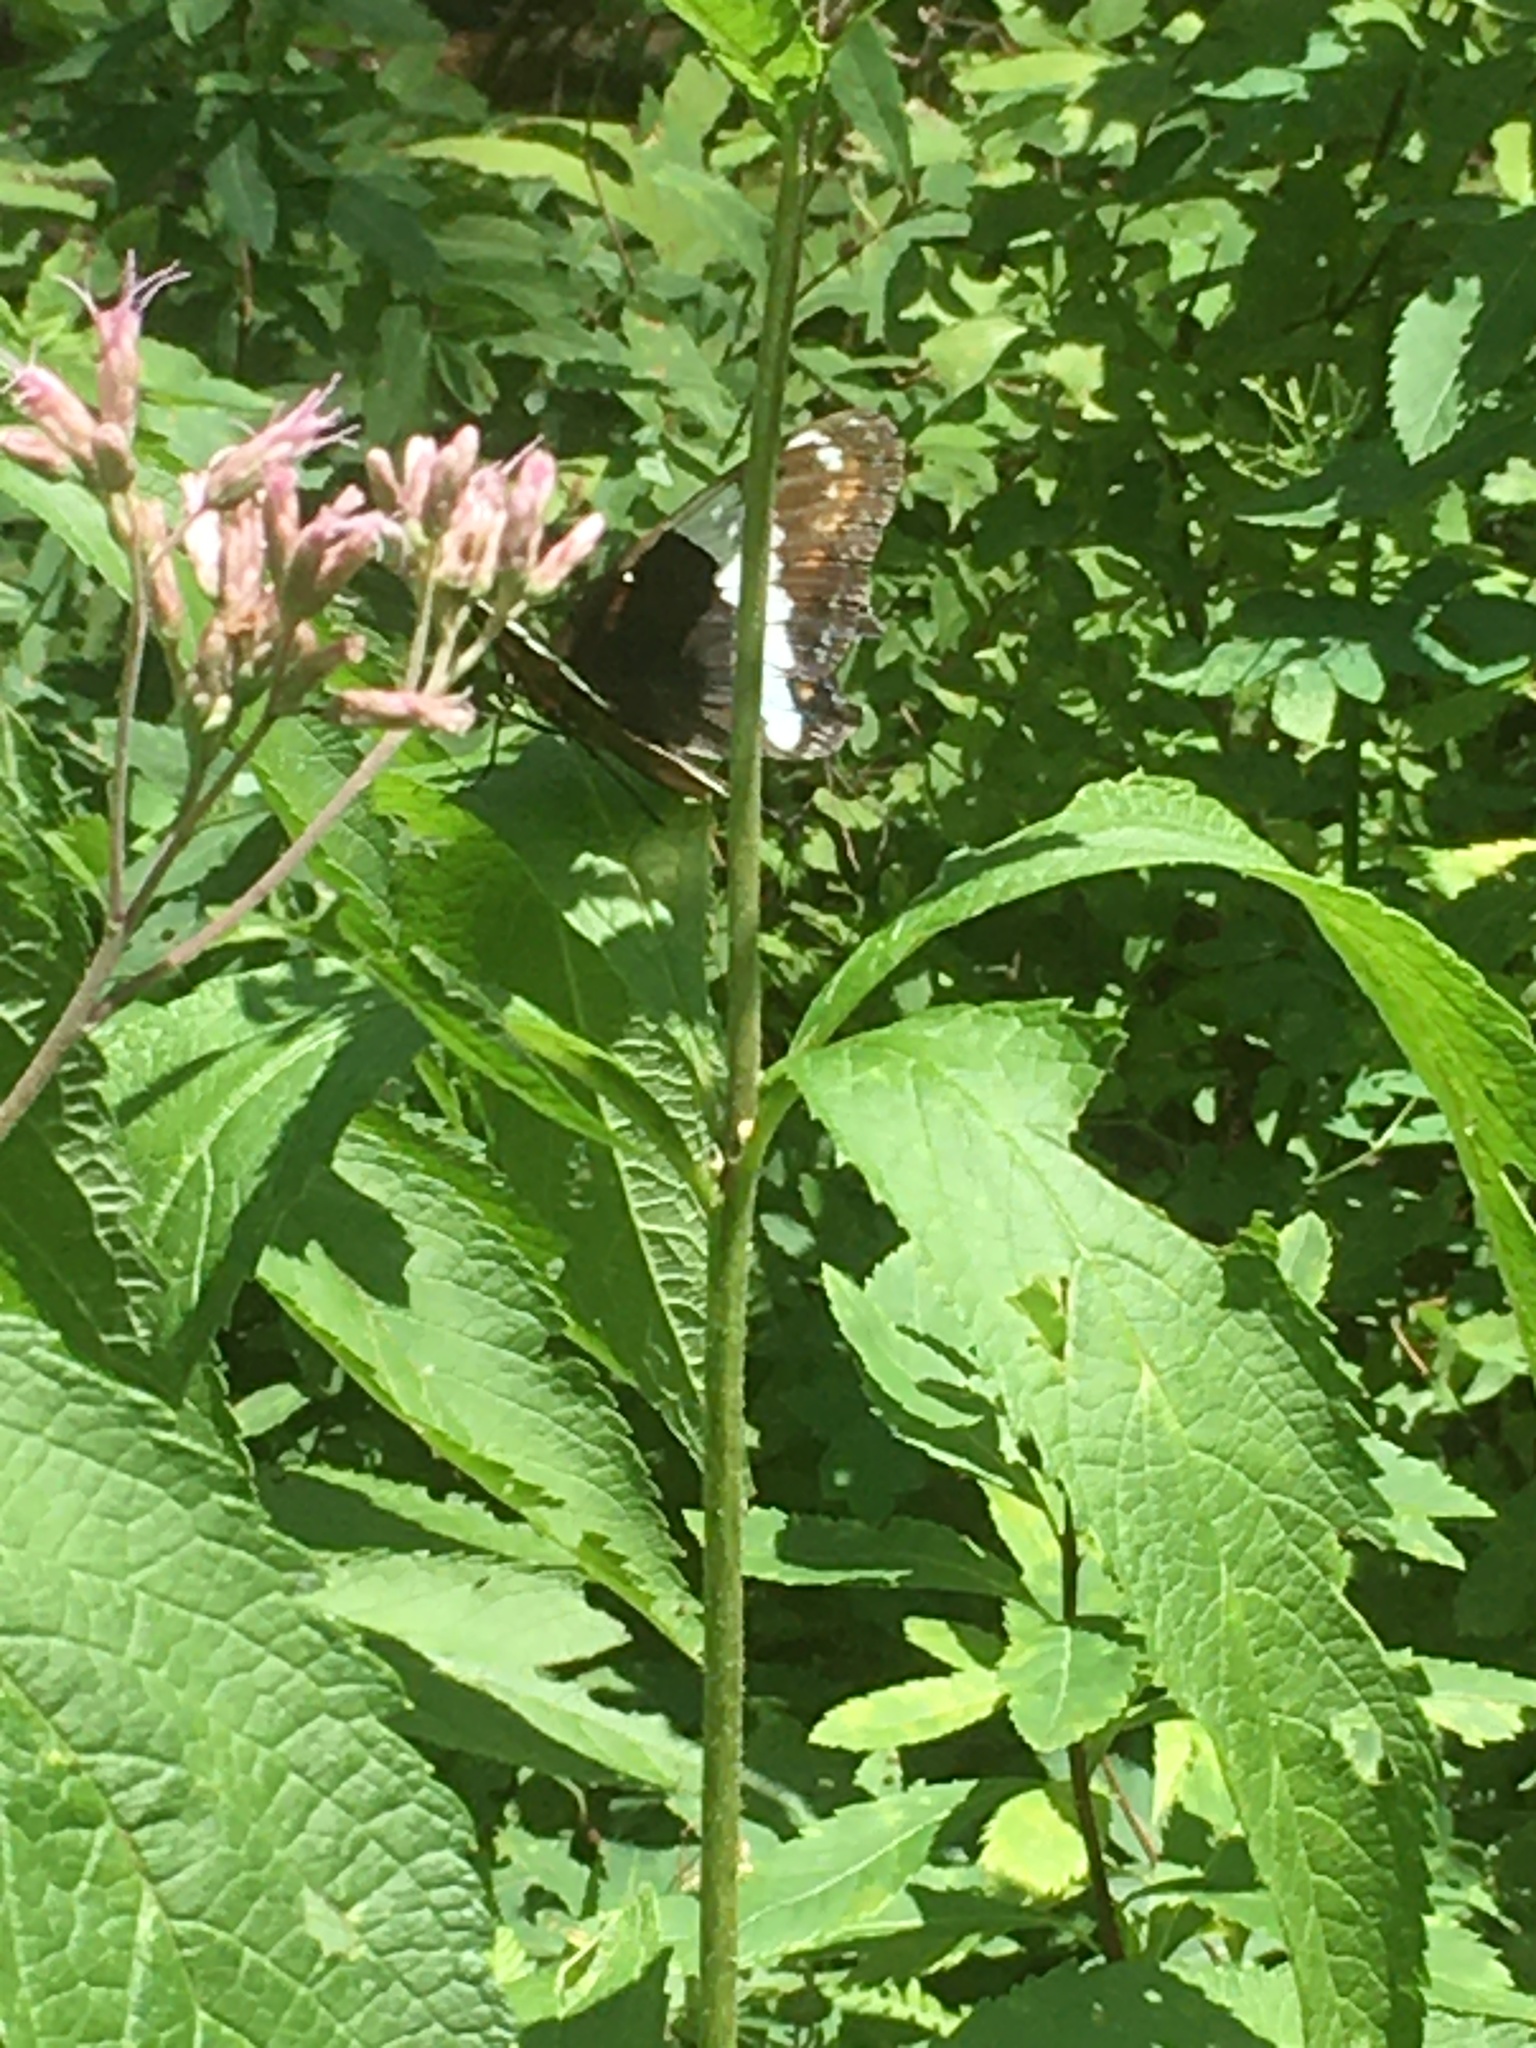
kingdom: Animalia
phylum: Arthropoda
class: Insecta
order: Lepidoptera
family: Nymphalidae
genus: Limenitis
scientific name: Limenitis arthemis
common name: Red-spotted admiral
